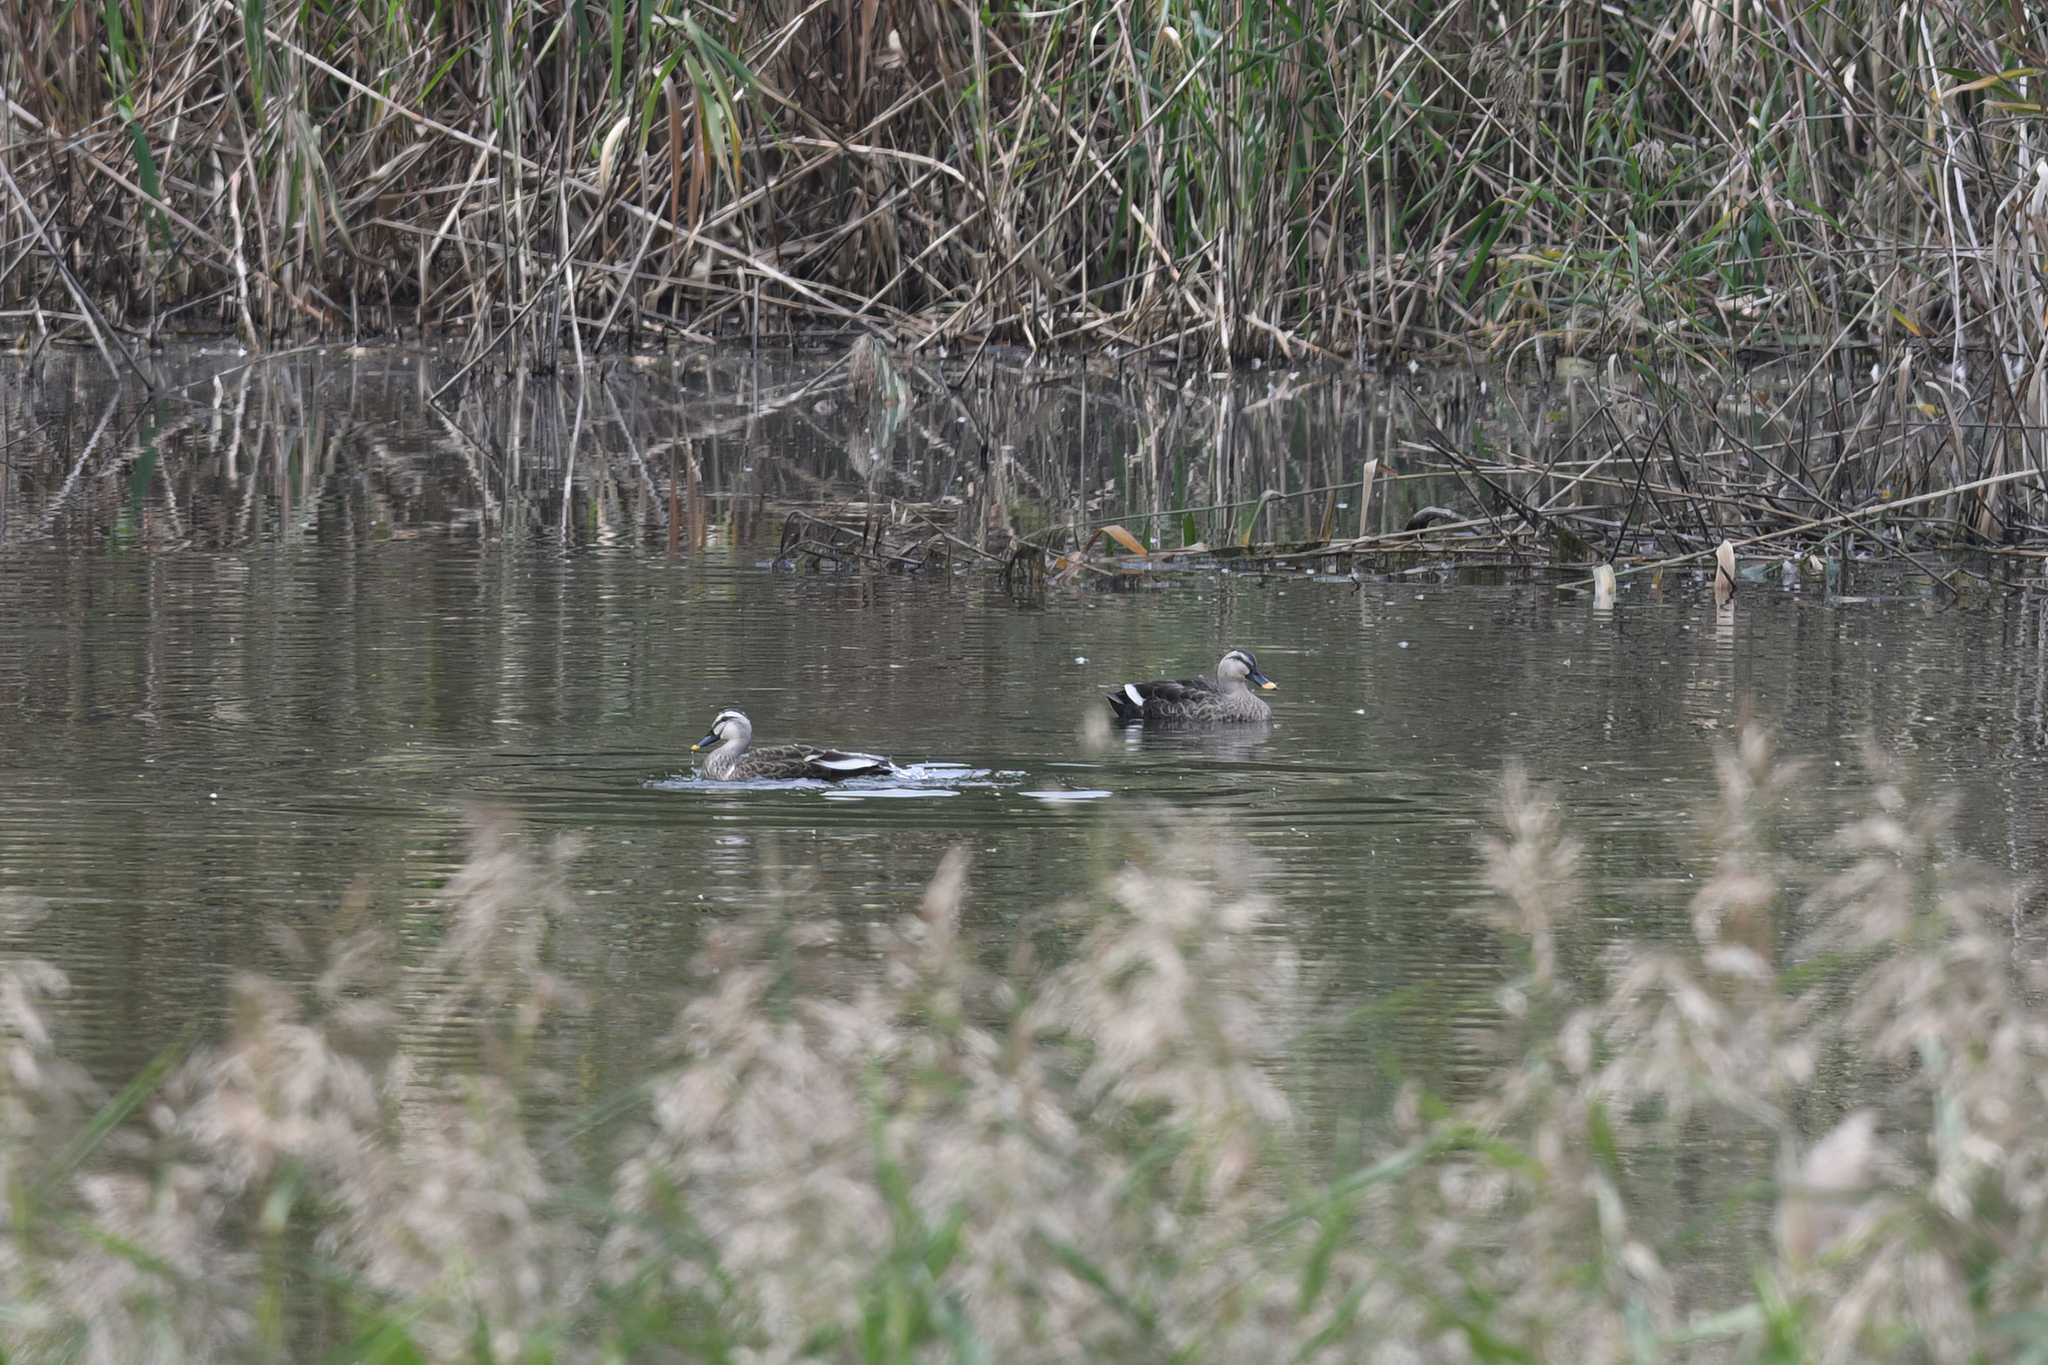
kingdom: Animalia
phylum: Chordata
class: Aves
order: Anseriformes
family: Anatidae
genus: Anas
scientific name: Anas zonorhyncha
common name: Eastern spot-billed duck
